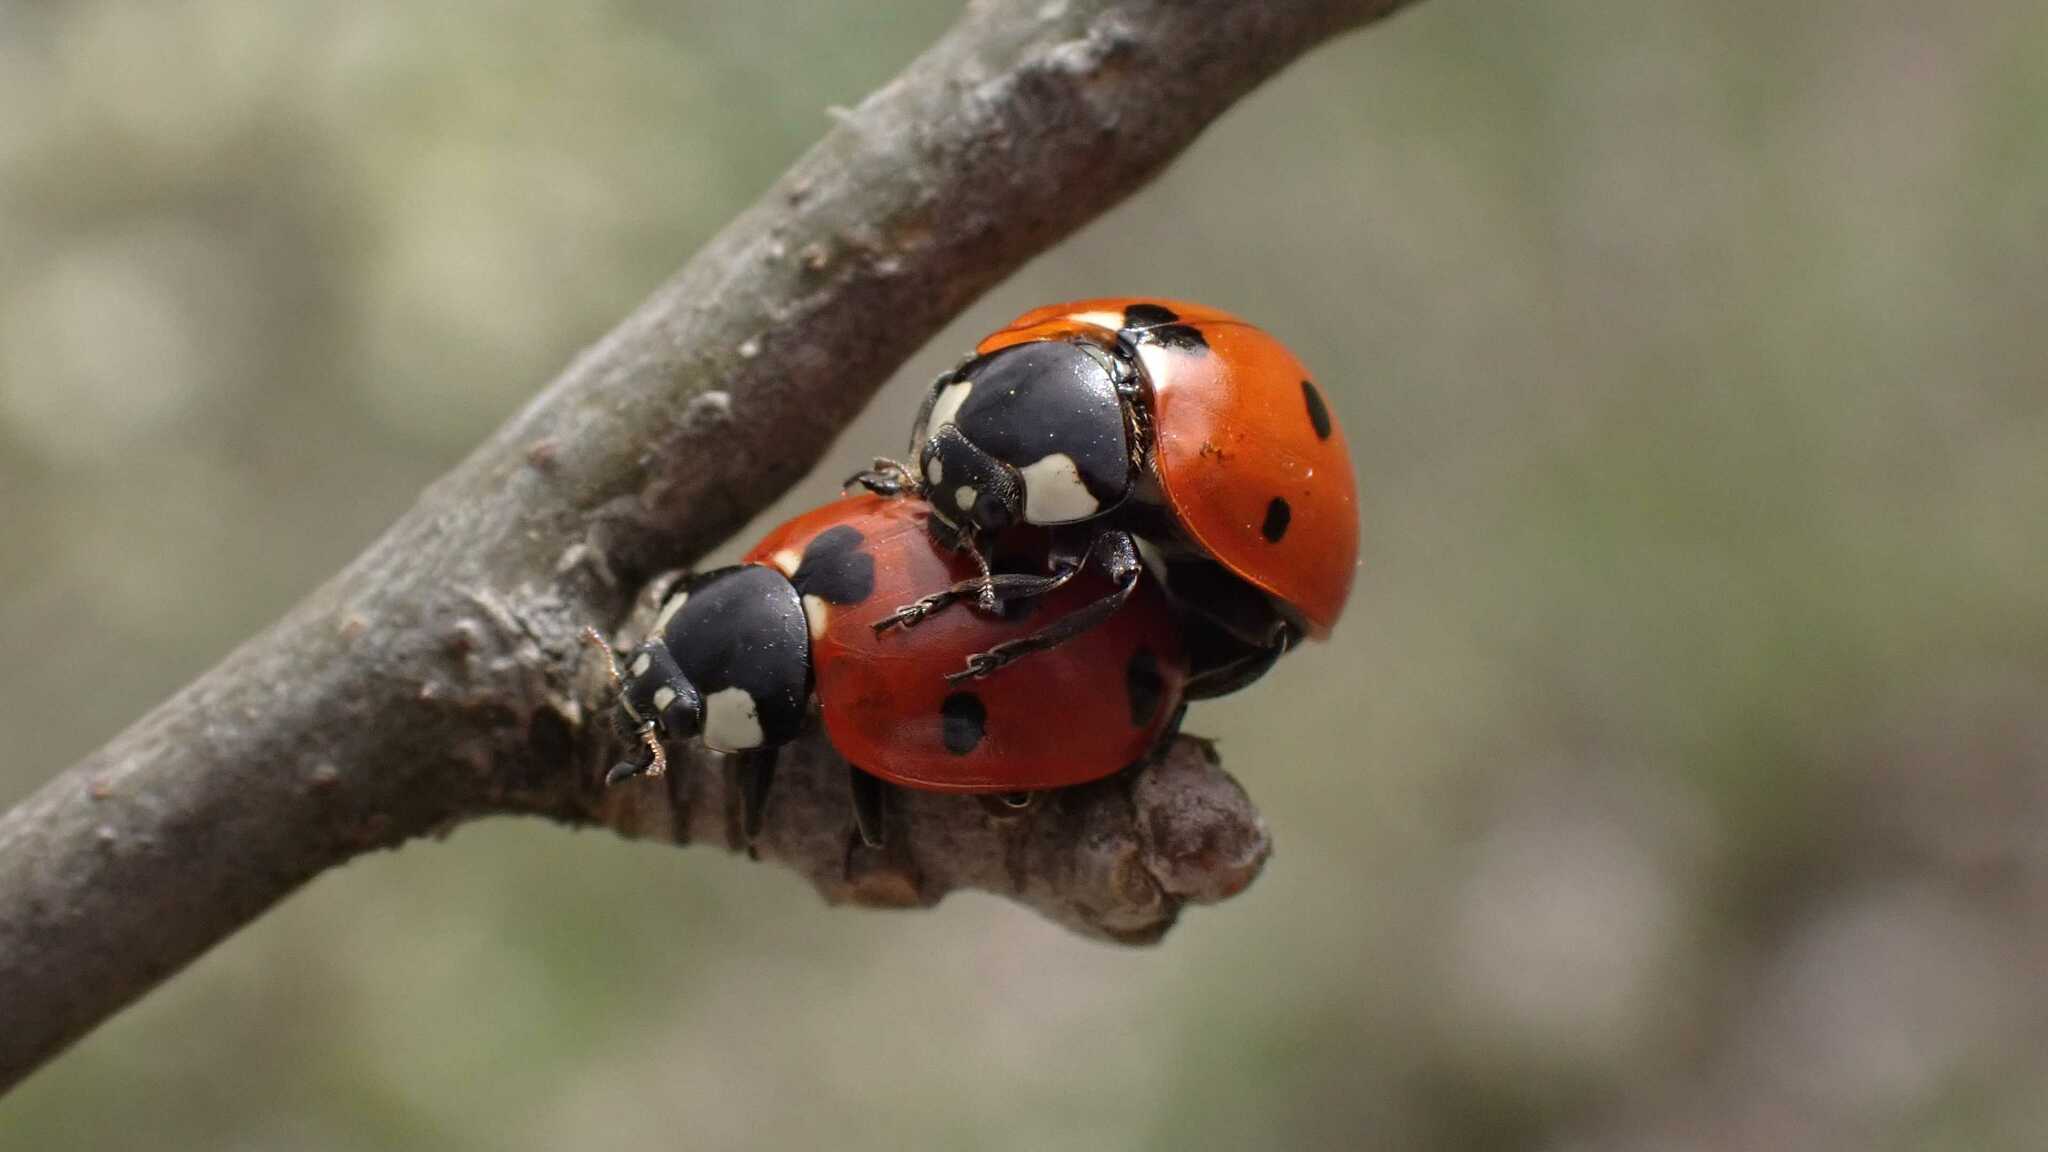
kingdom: Animalia
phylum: Arthropoda
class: Insecta
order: Coleoptera
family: Coccinellidae
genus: Coccinella
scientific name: Coccinella septempunctata
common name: Sevenspotted lady beetle
